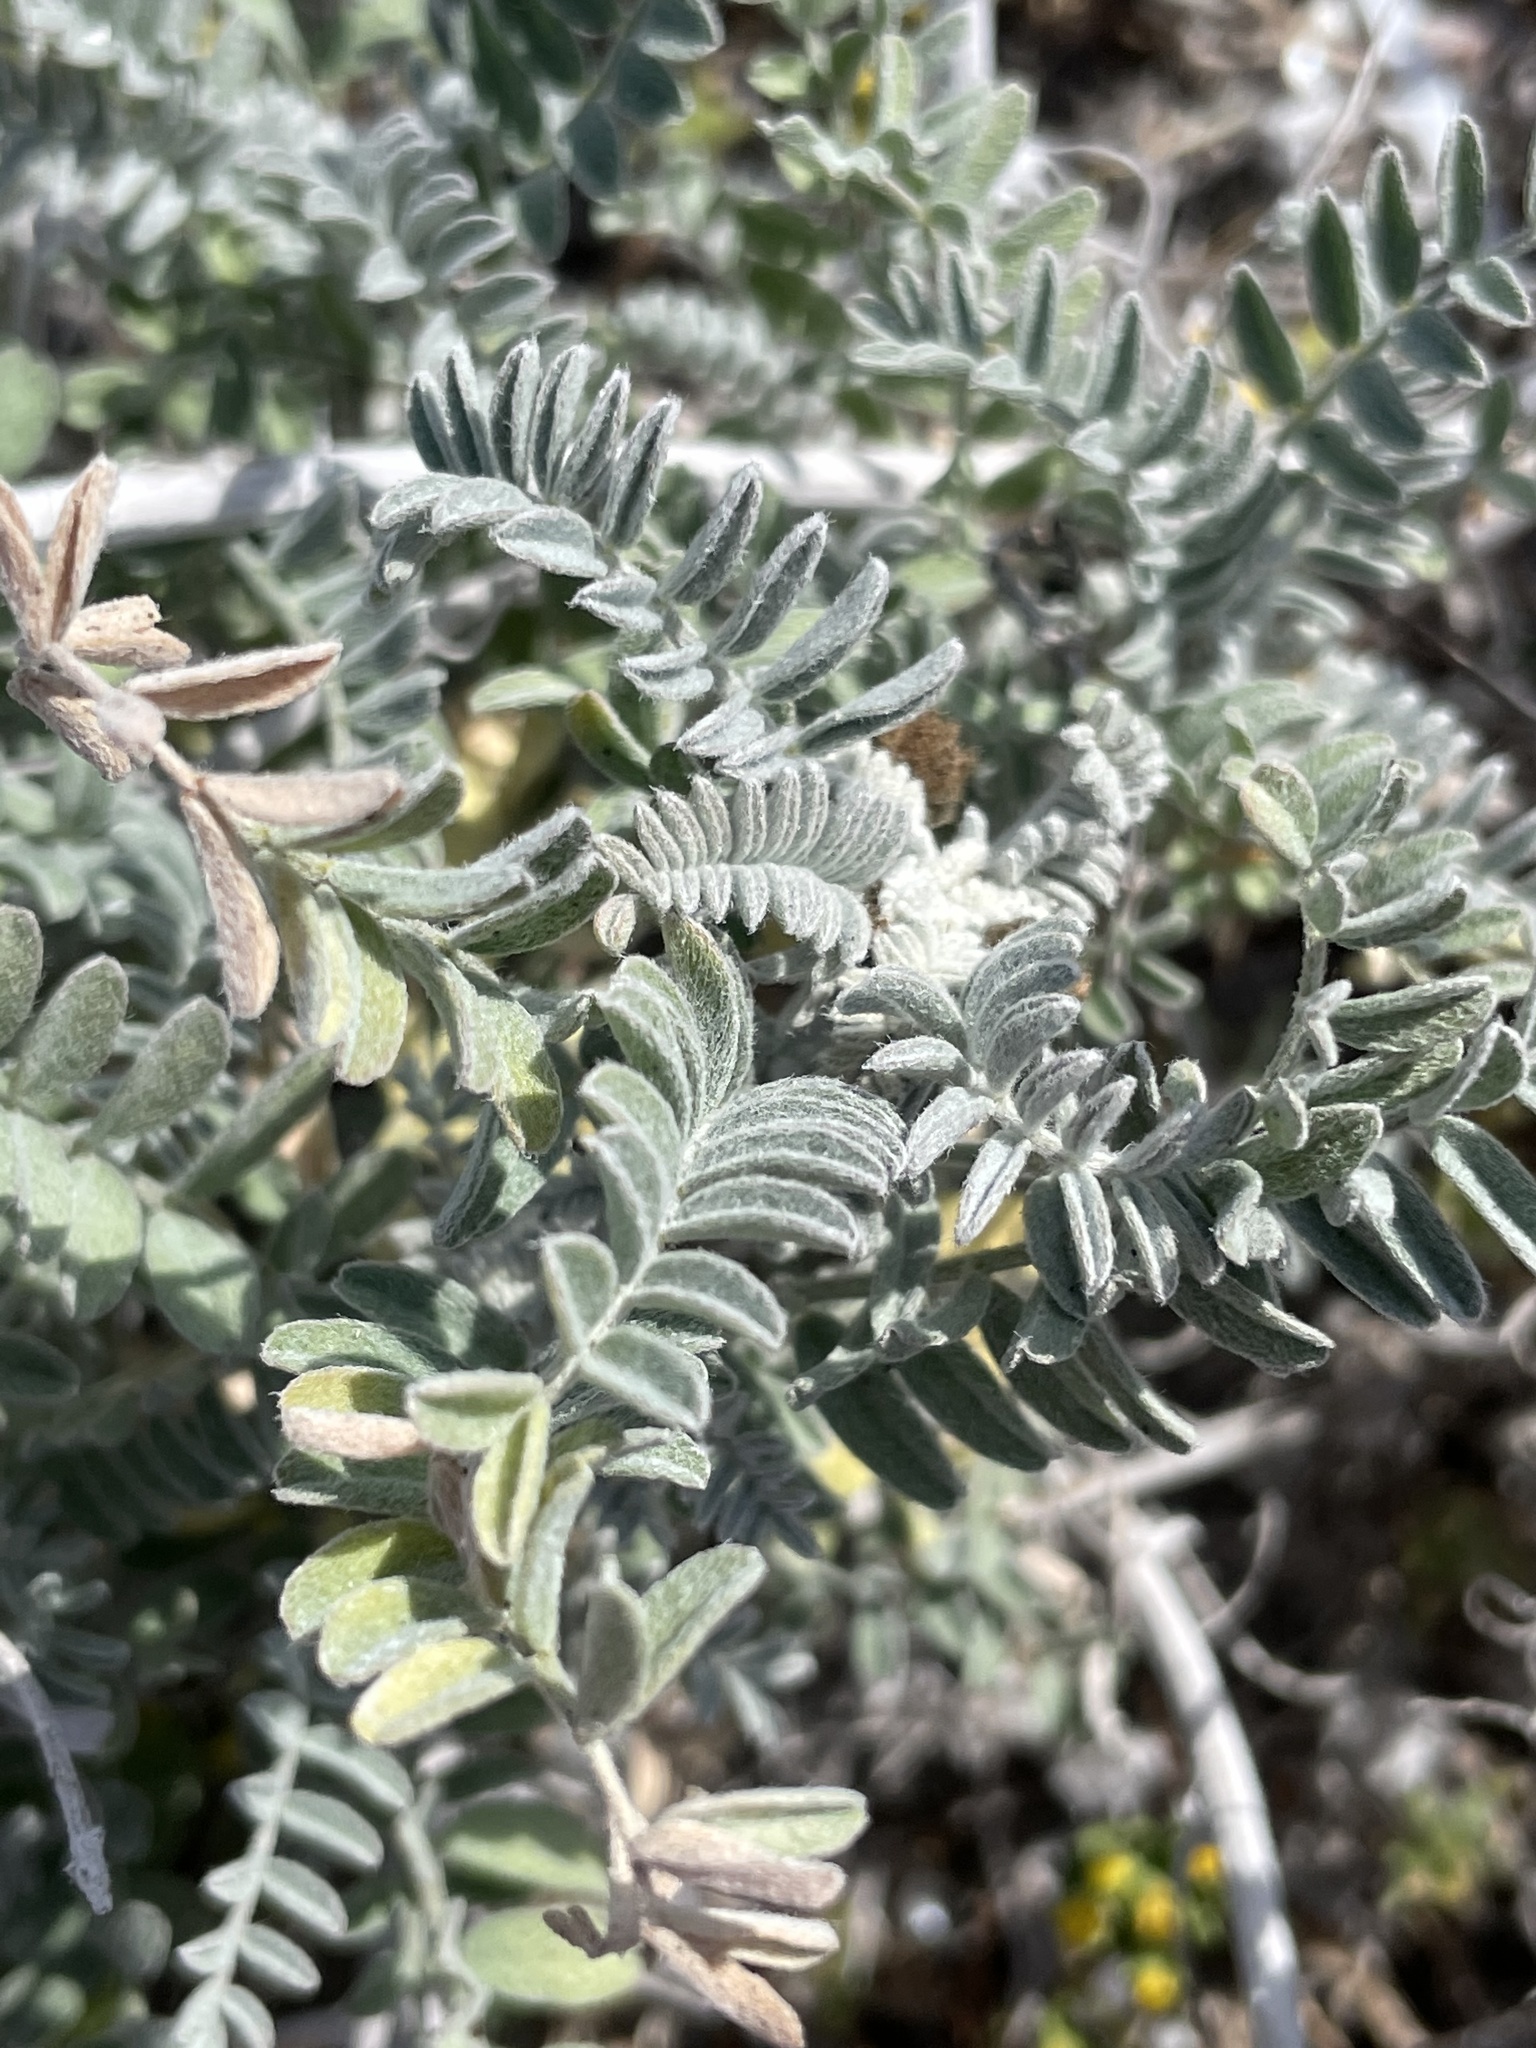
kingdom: Plantae
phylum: Tracheophyta
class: Magnoliopsida
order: Fabales
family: Fabaceae
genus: Astragalus
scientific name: Astragalus nevinii
